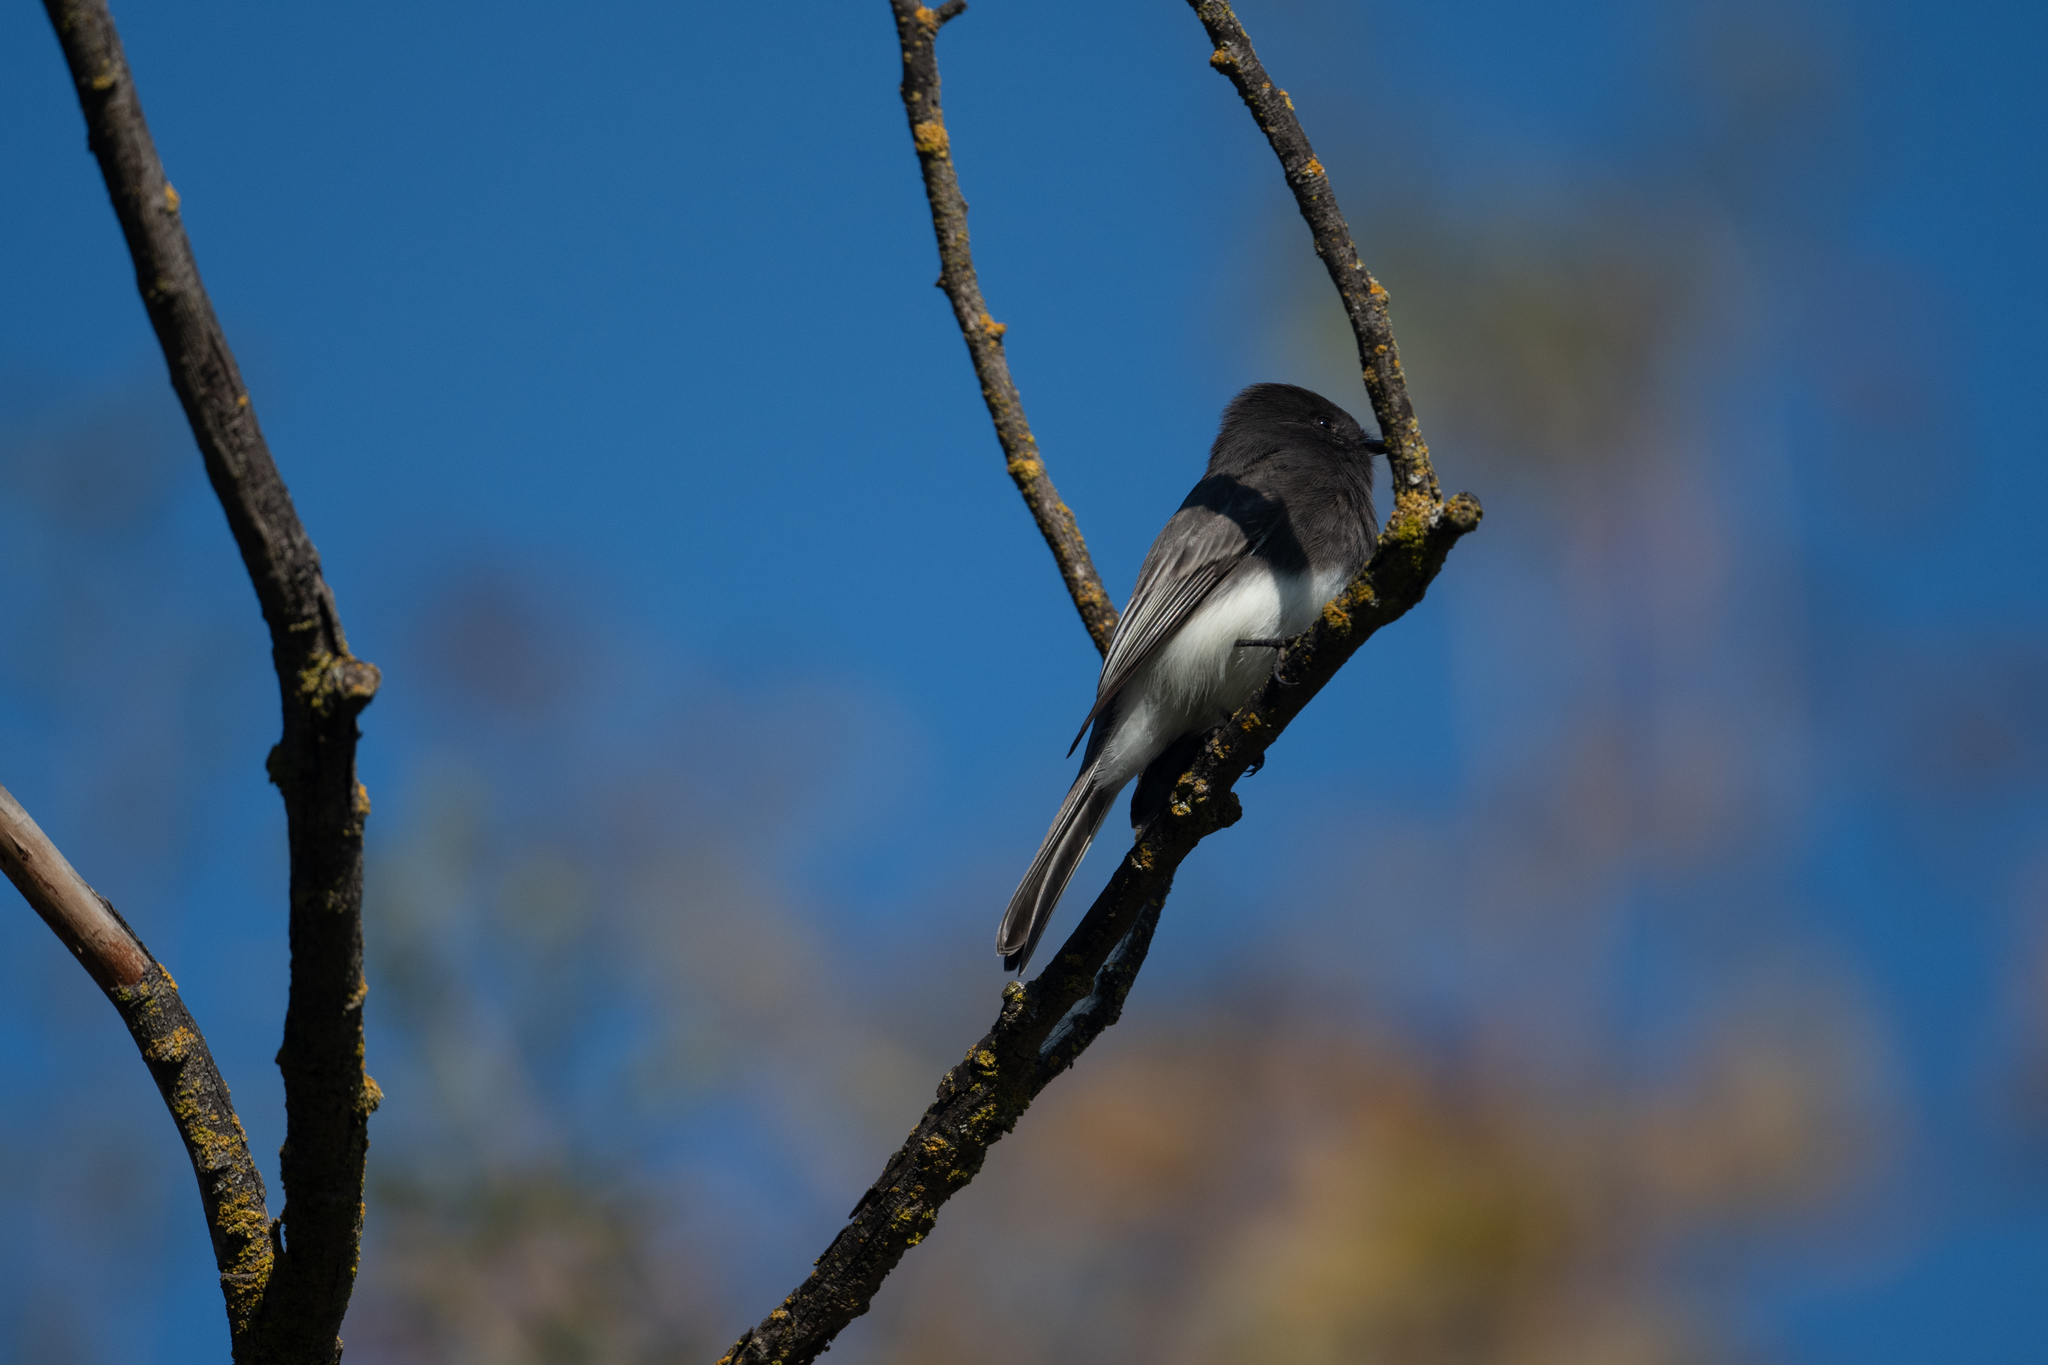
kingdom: Animalia
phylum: Chordata
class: Aves
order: Passeriformes
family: Tyrannidae
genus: Sayornis
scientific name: Sayornis nigricans
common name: Black phoebe
